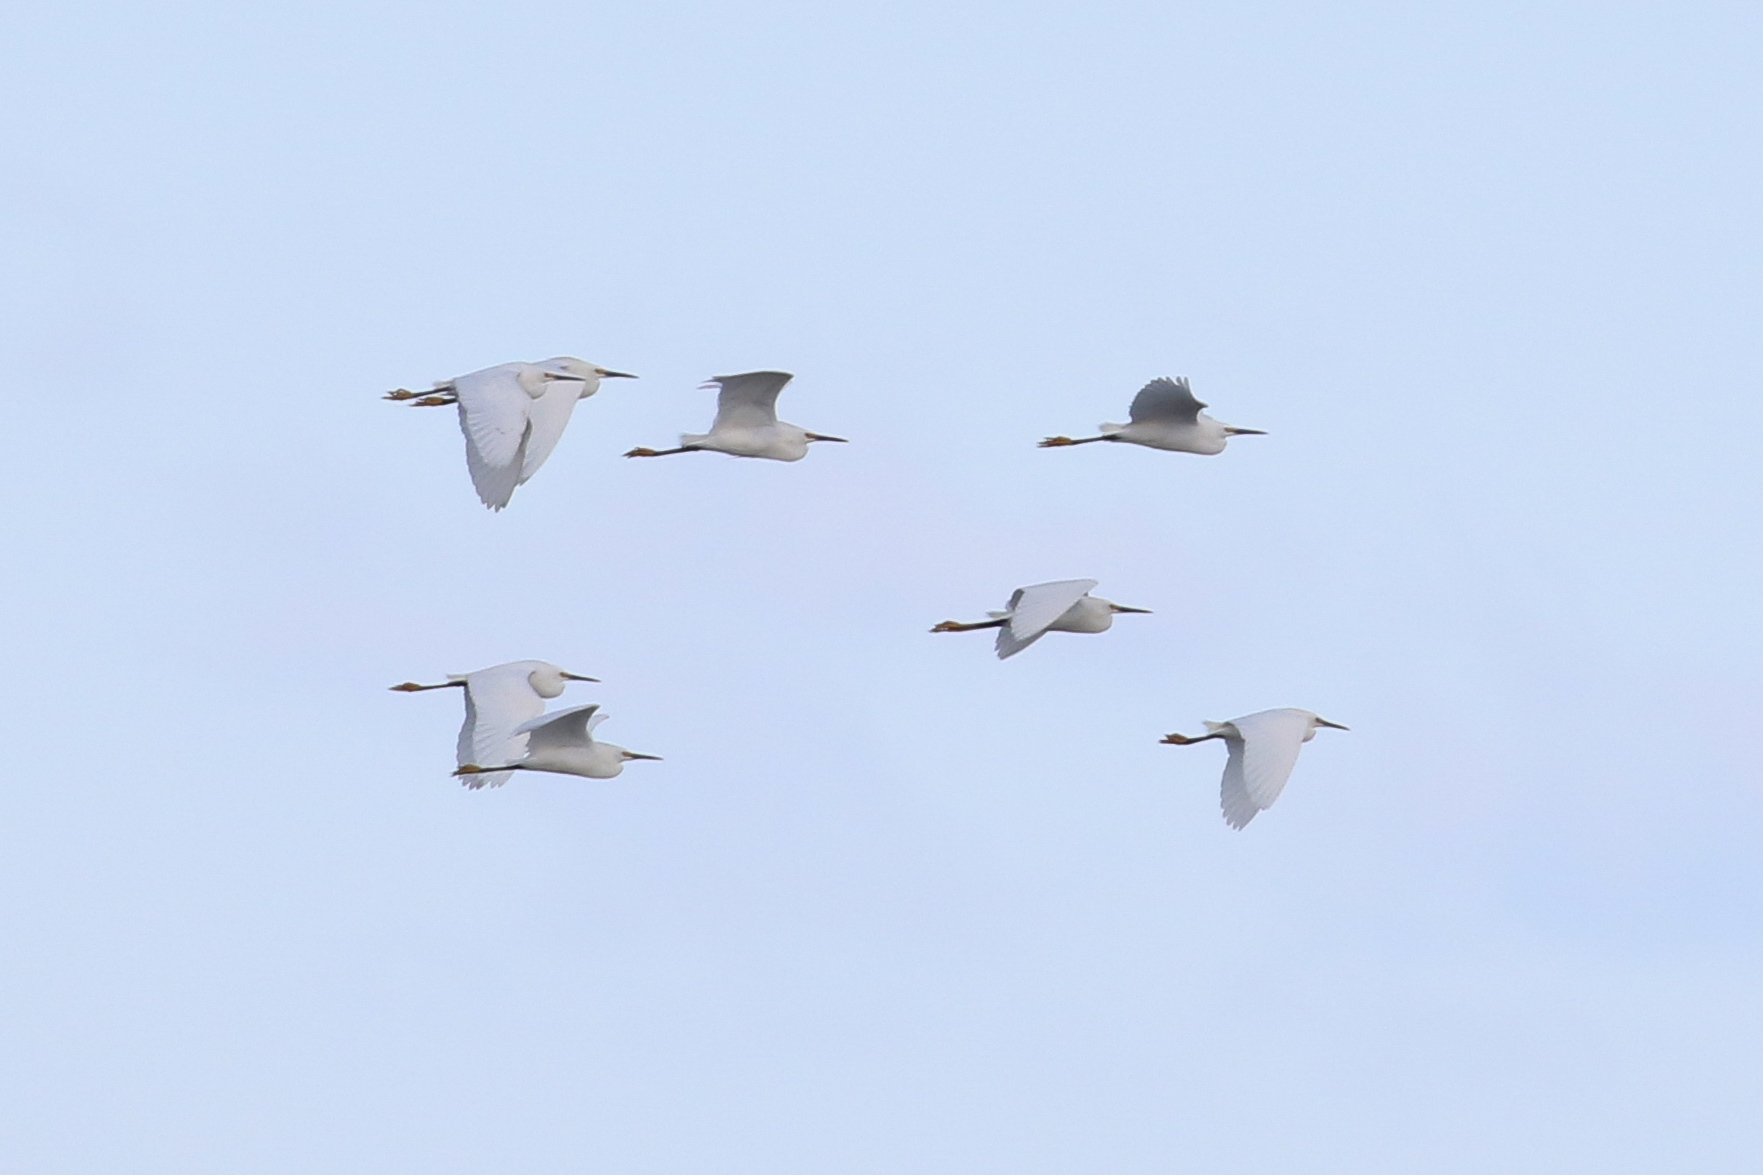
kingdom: Animalia
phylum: Chordata
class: Aves
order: Pelecaniformes
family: Ardeidae
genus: Egretta
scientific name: Egretta thula
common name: Snowy egret
